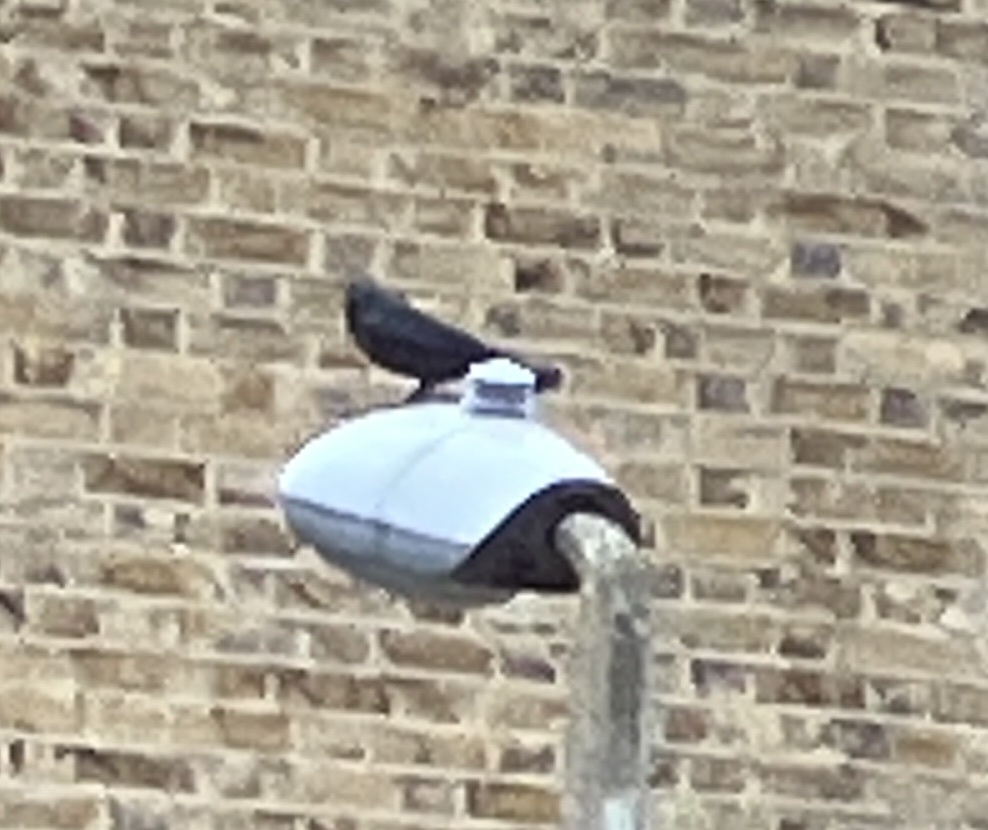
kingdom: Animalia
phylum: Chordata
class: Aves
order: Passeriformes
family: Corvidae
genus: Coloeus
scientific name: Coloeus monedula
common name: Western jackdaw
